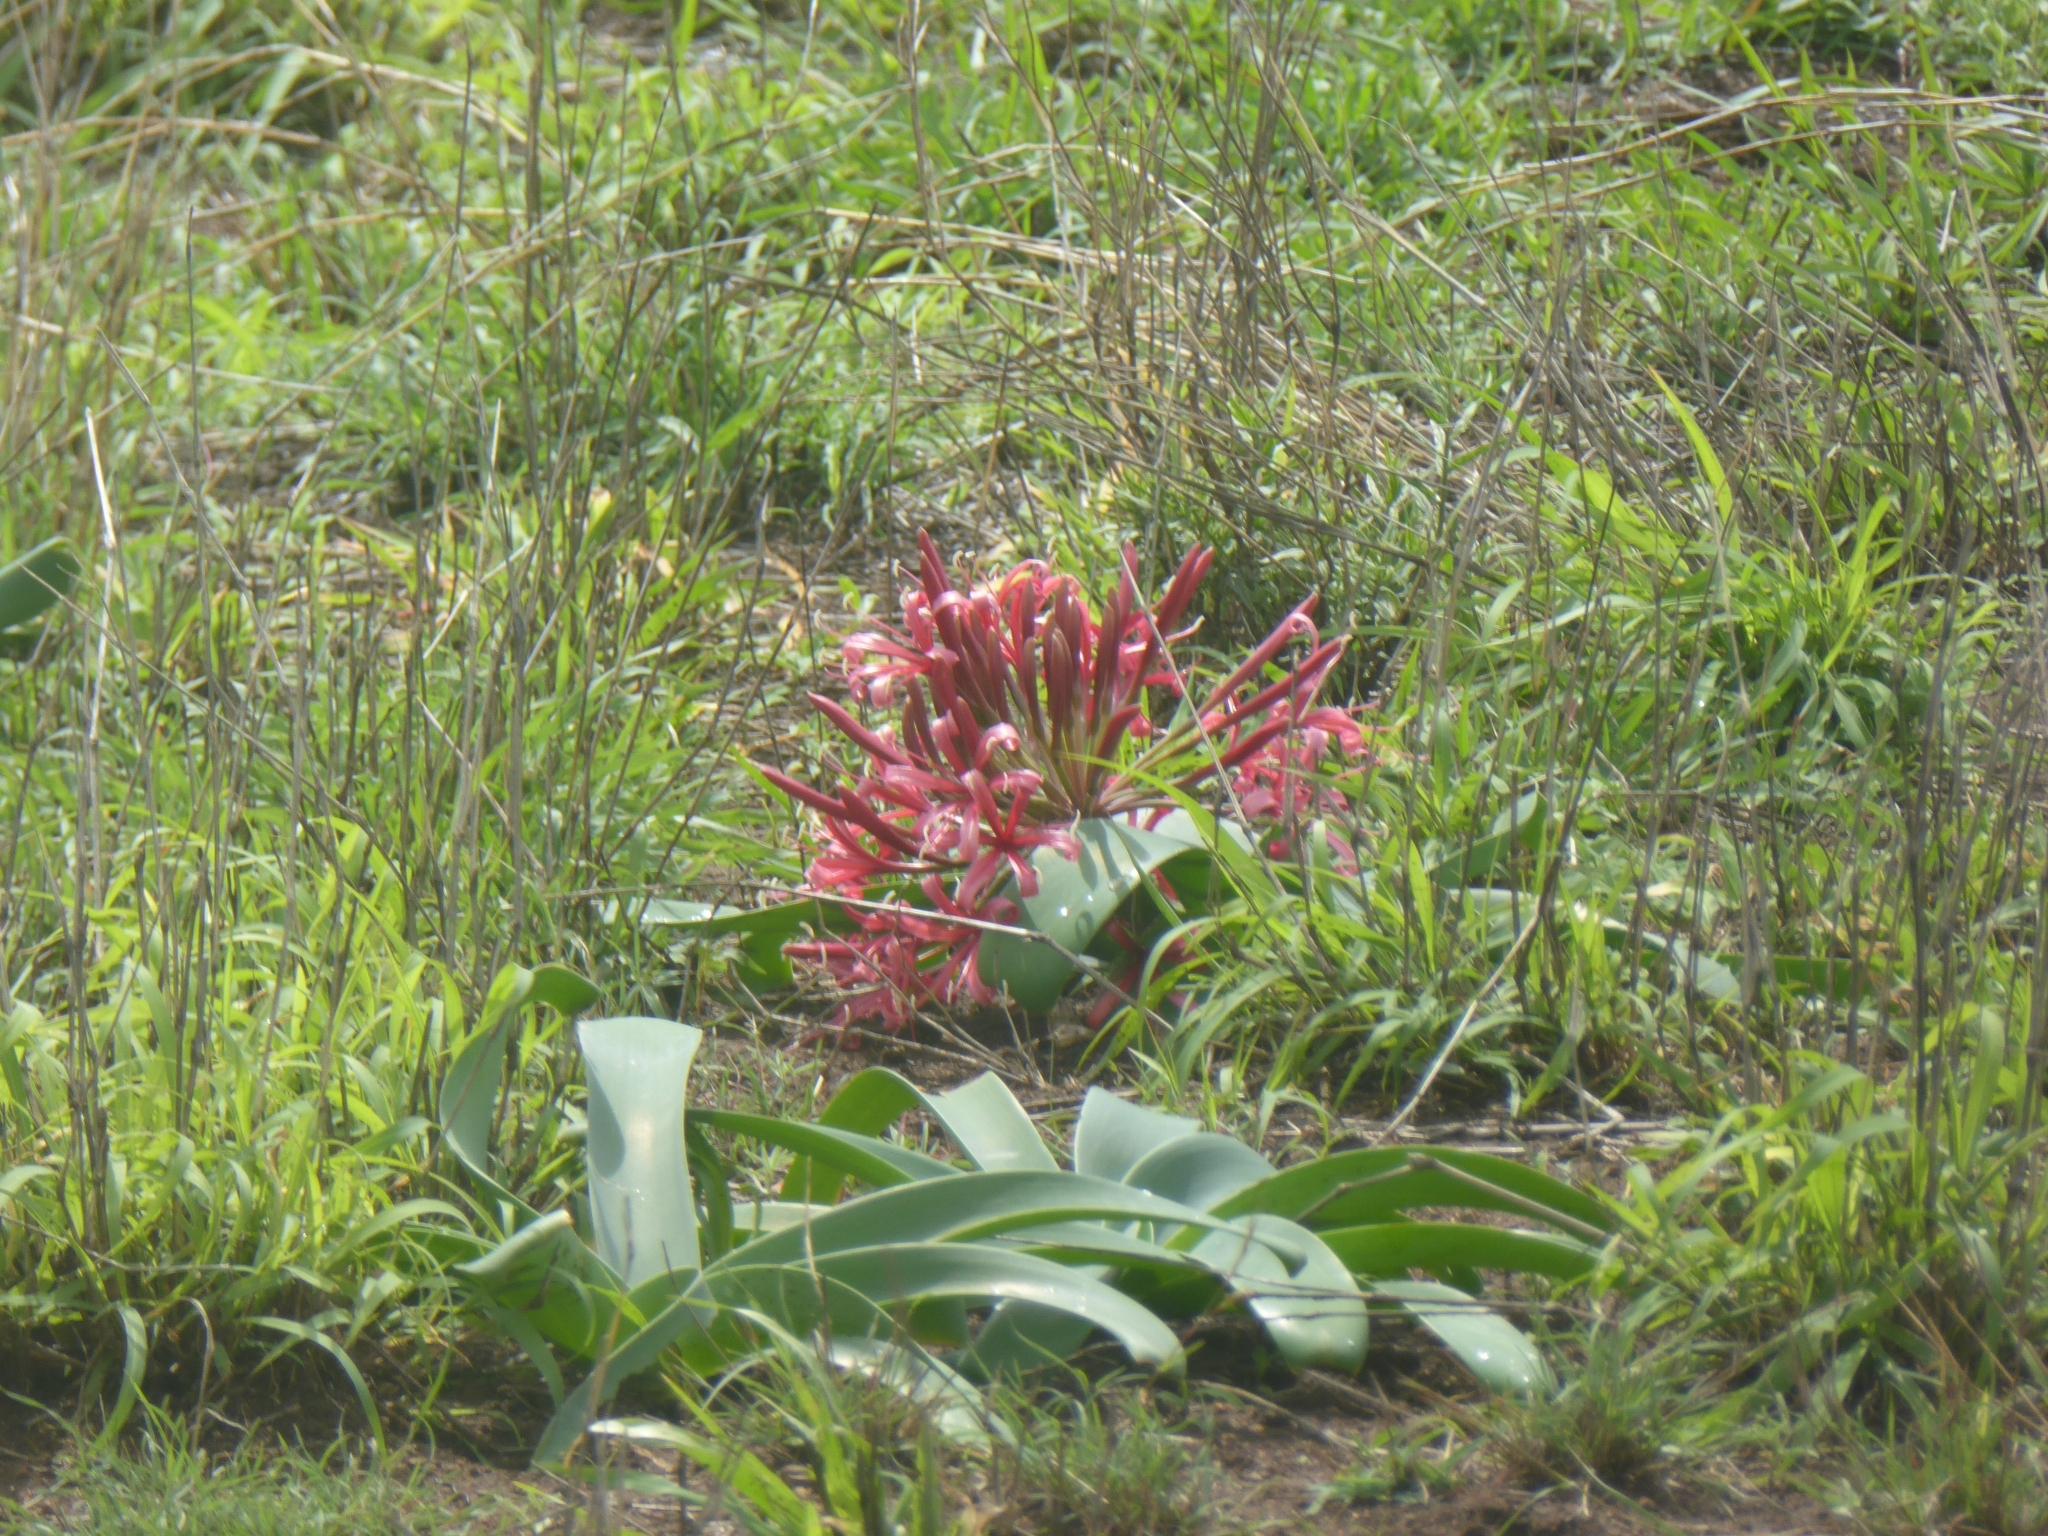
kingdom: Plantae
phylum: Tracheophyta
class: Liliopsida
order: Asparagales
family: Amaryllidaceae
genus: Ammocharis
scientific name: Ammocharis coranica
